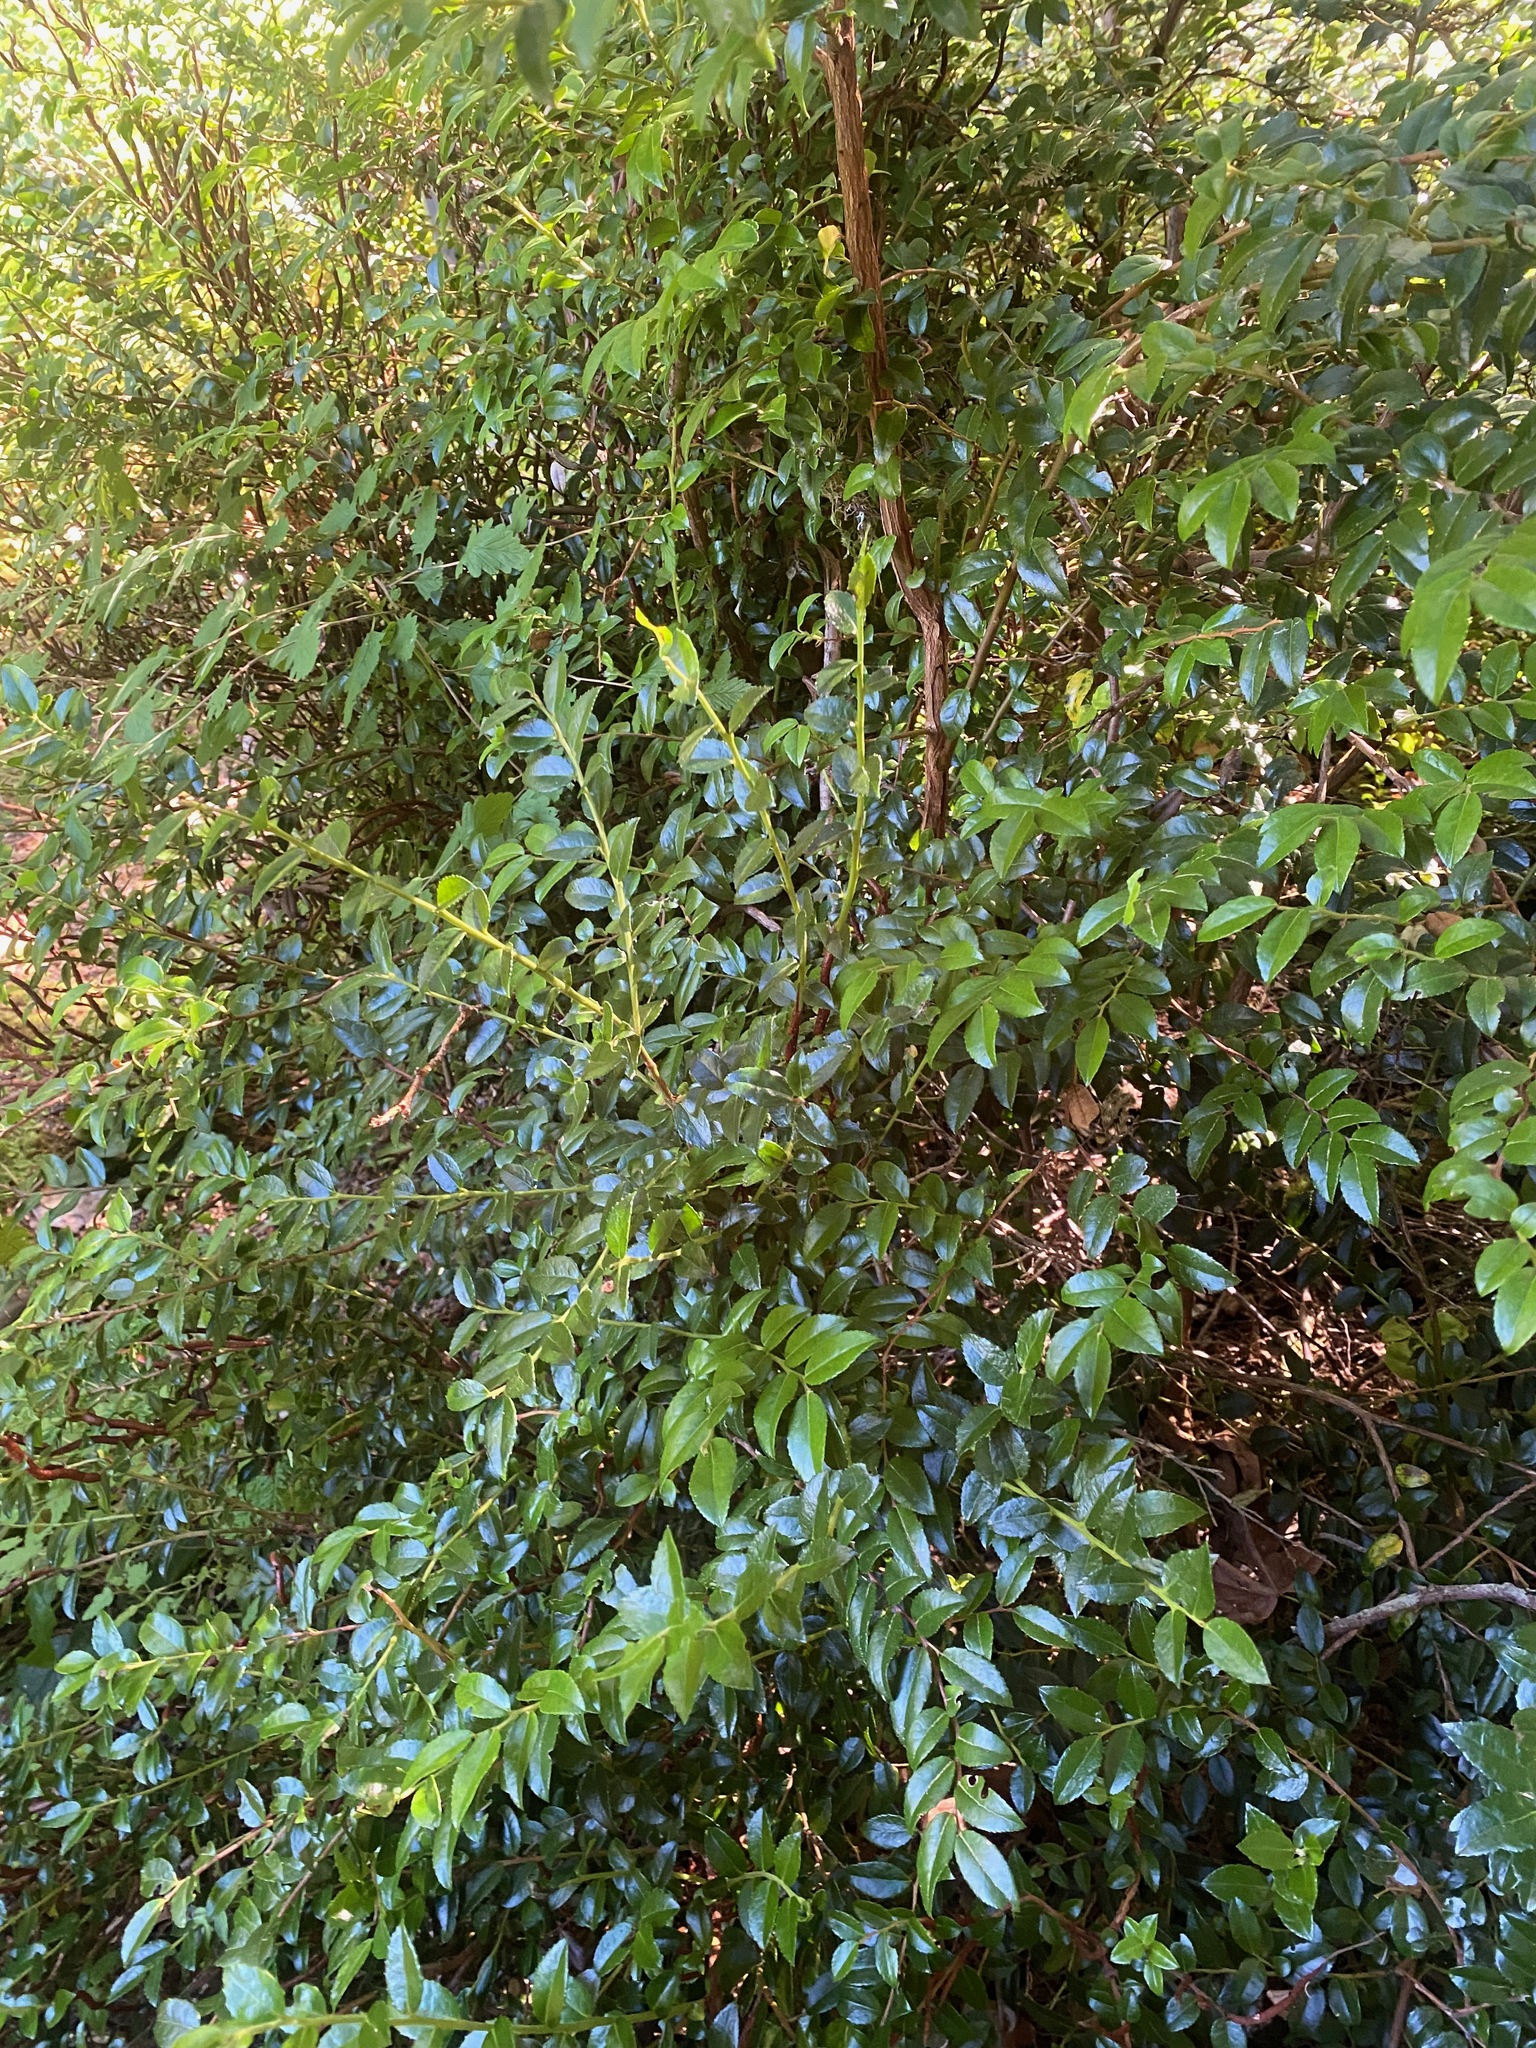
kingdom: Plantae
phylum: Tracheophyta
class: Magnoliopsida
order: Ericales
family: Ericaceae
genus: Vaccinium
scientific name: Vaccinium ovatum
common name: California-huckleberry
